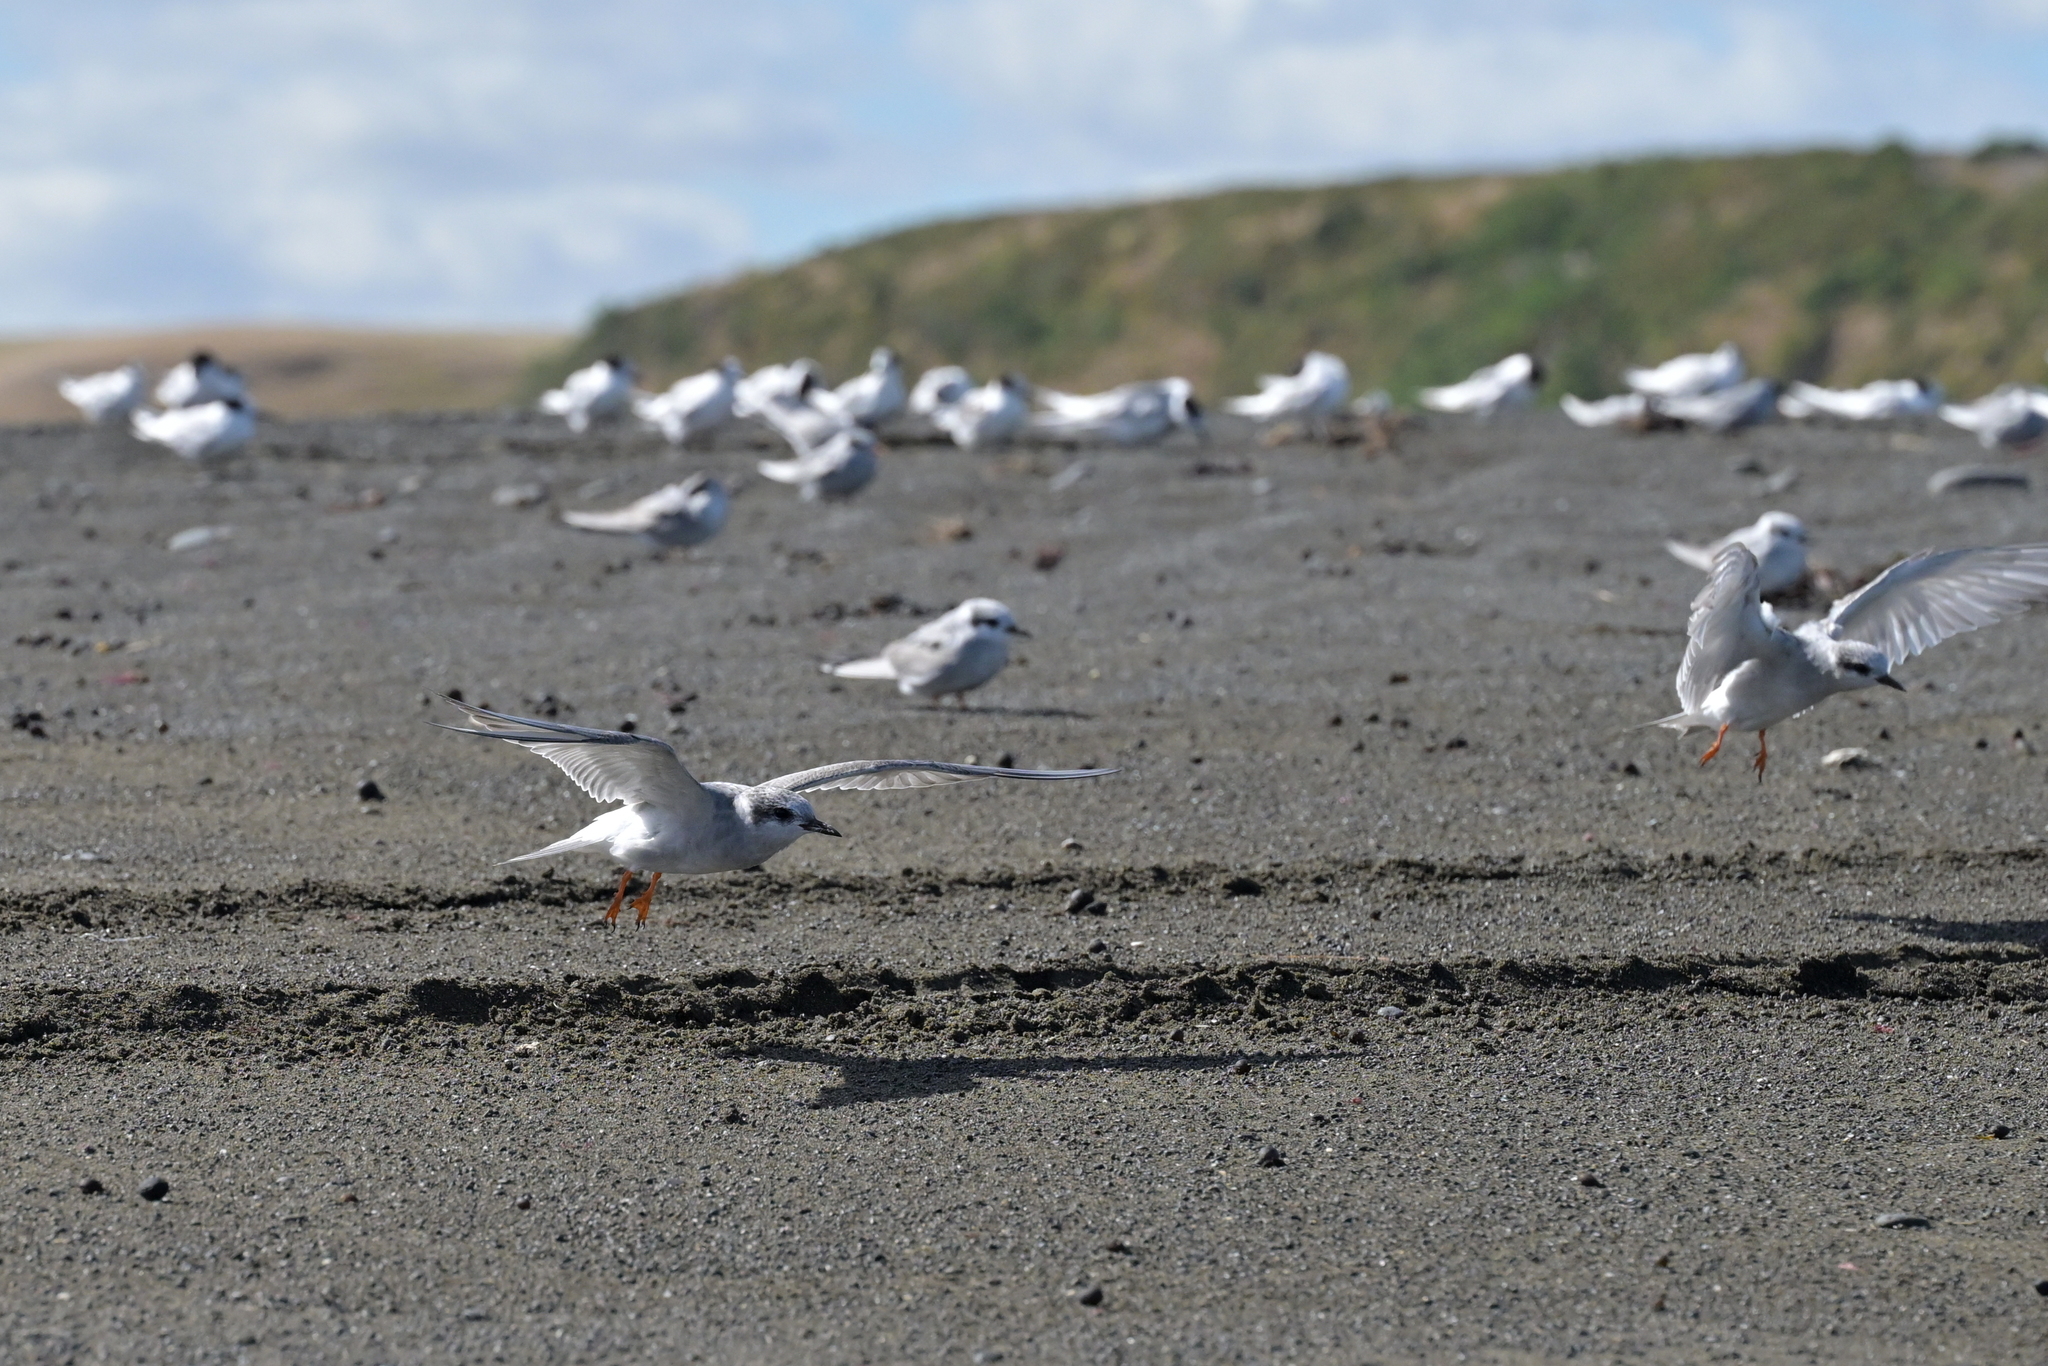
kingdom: Animalia
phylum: Chordata
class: Aves
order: Charadriiformes
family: Laridae
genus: Chlidonias
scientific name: Chlidonias albostriatus
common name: Black-fronted tern
